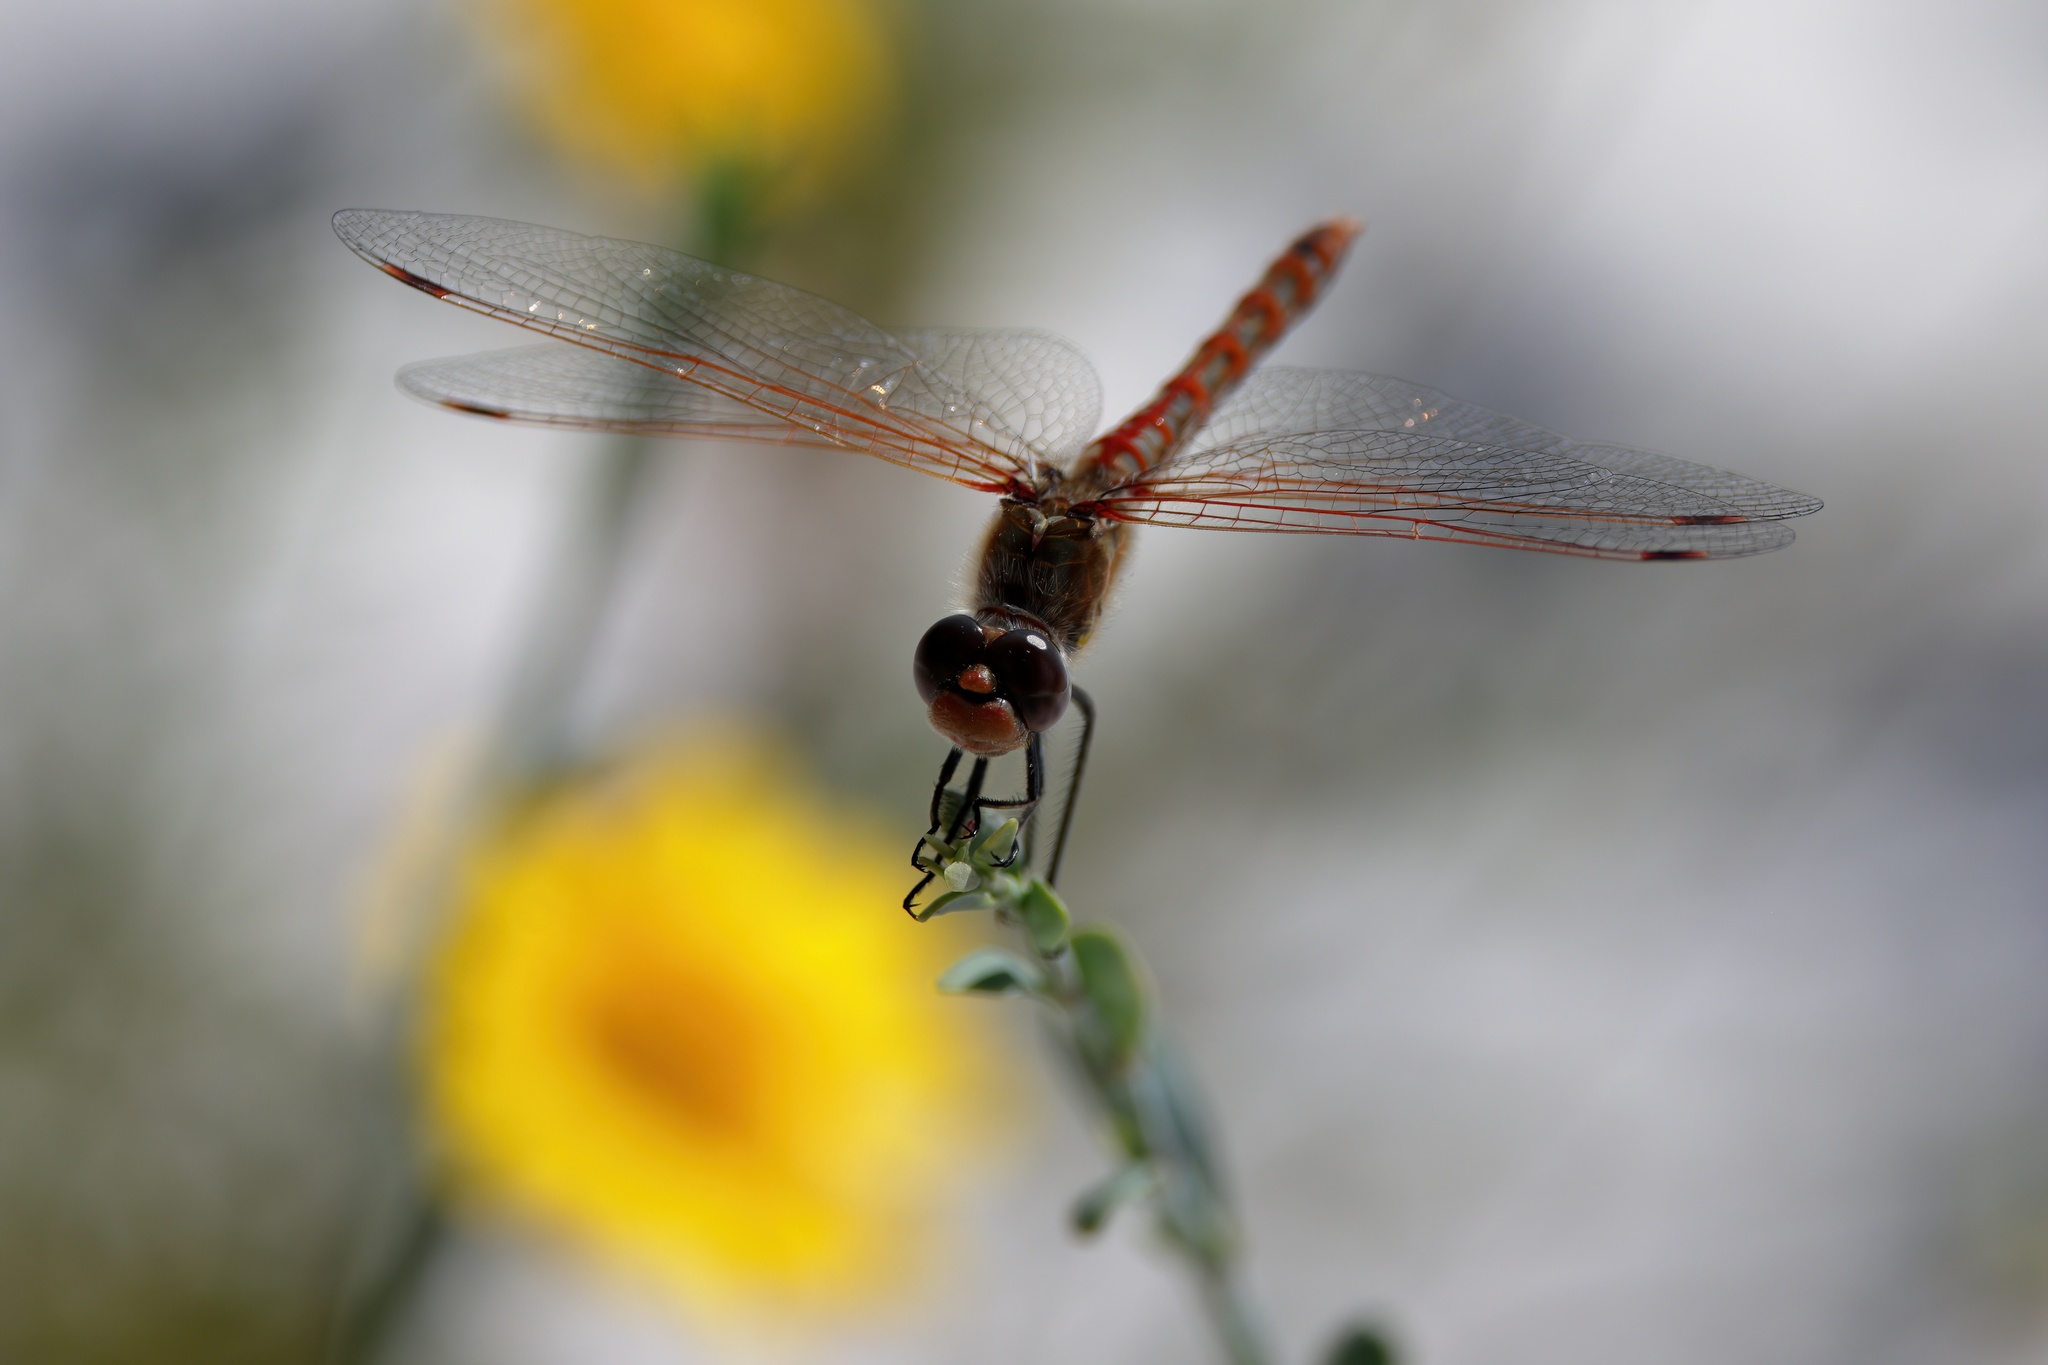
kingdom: Animalia
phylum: Arthropoda
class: Insecta
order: Odonata
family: Libellulidae
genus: Sympetrum
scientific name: Sympetrum corruptum
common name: Variegated meadowhawk
